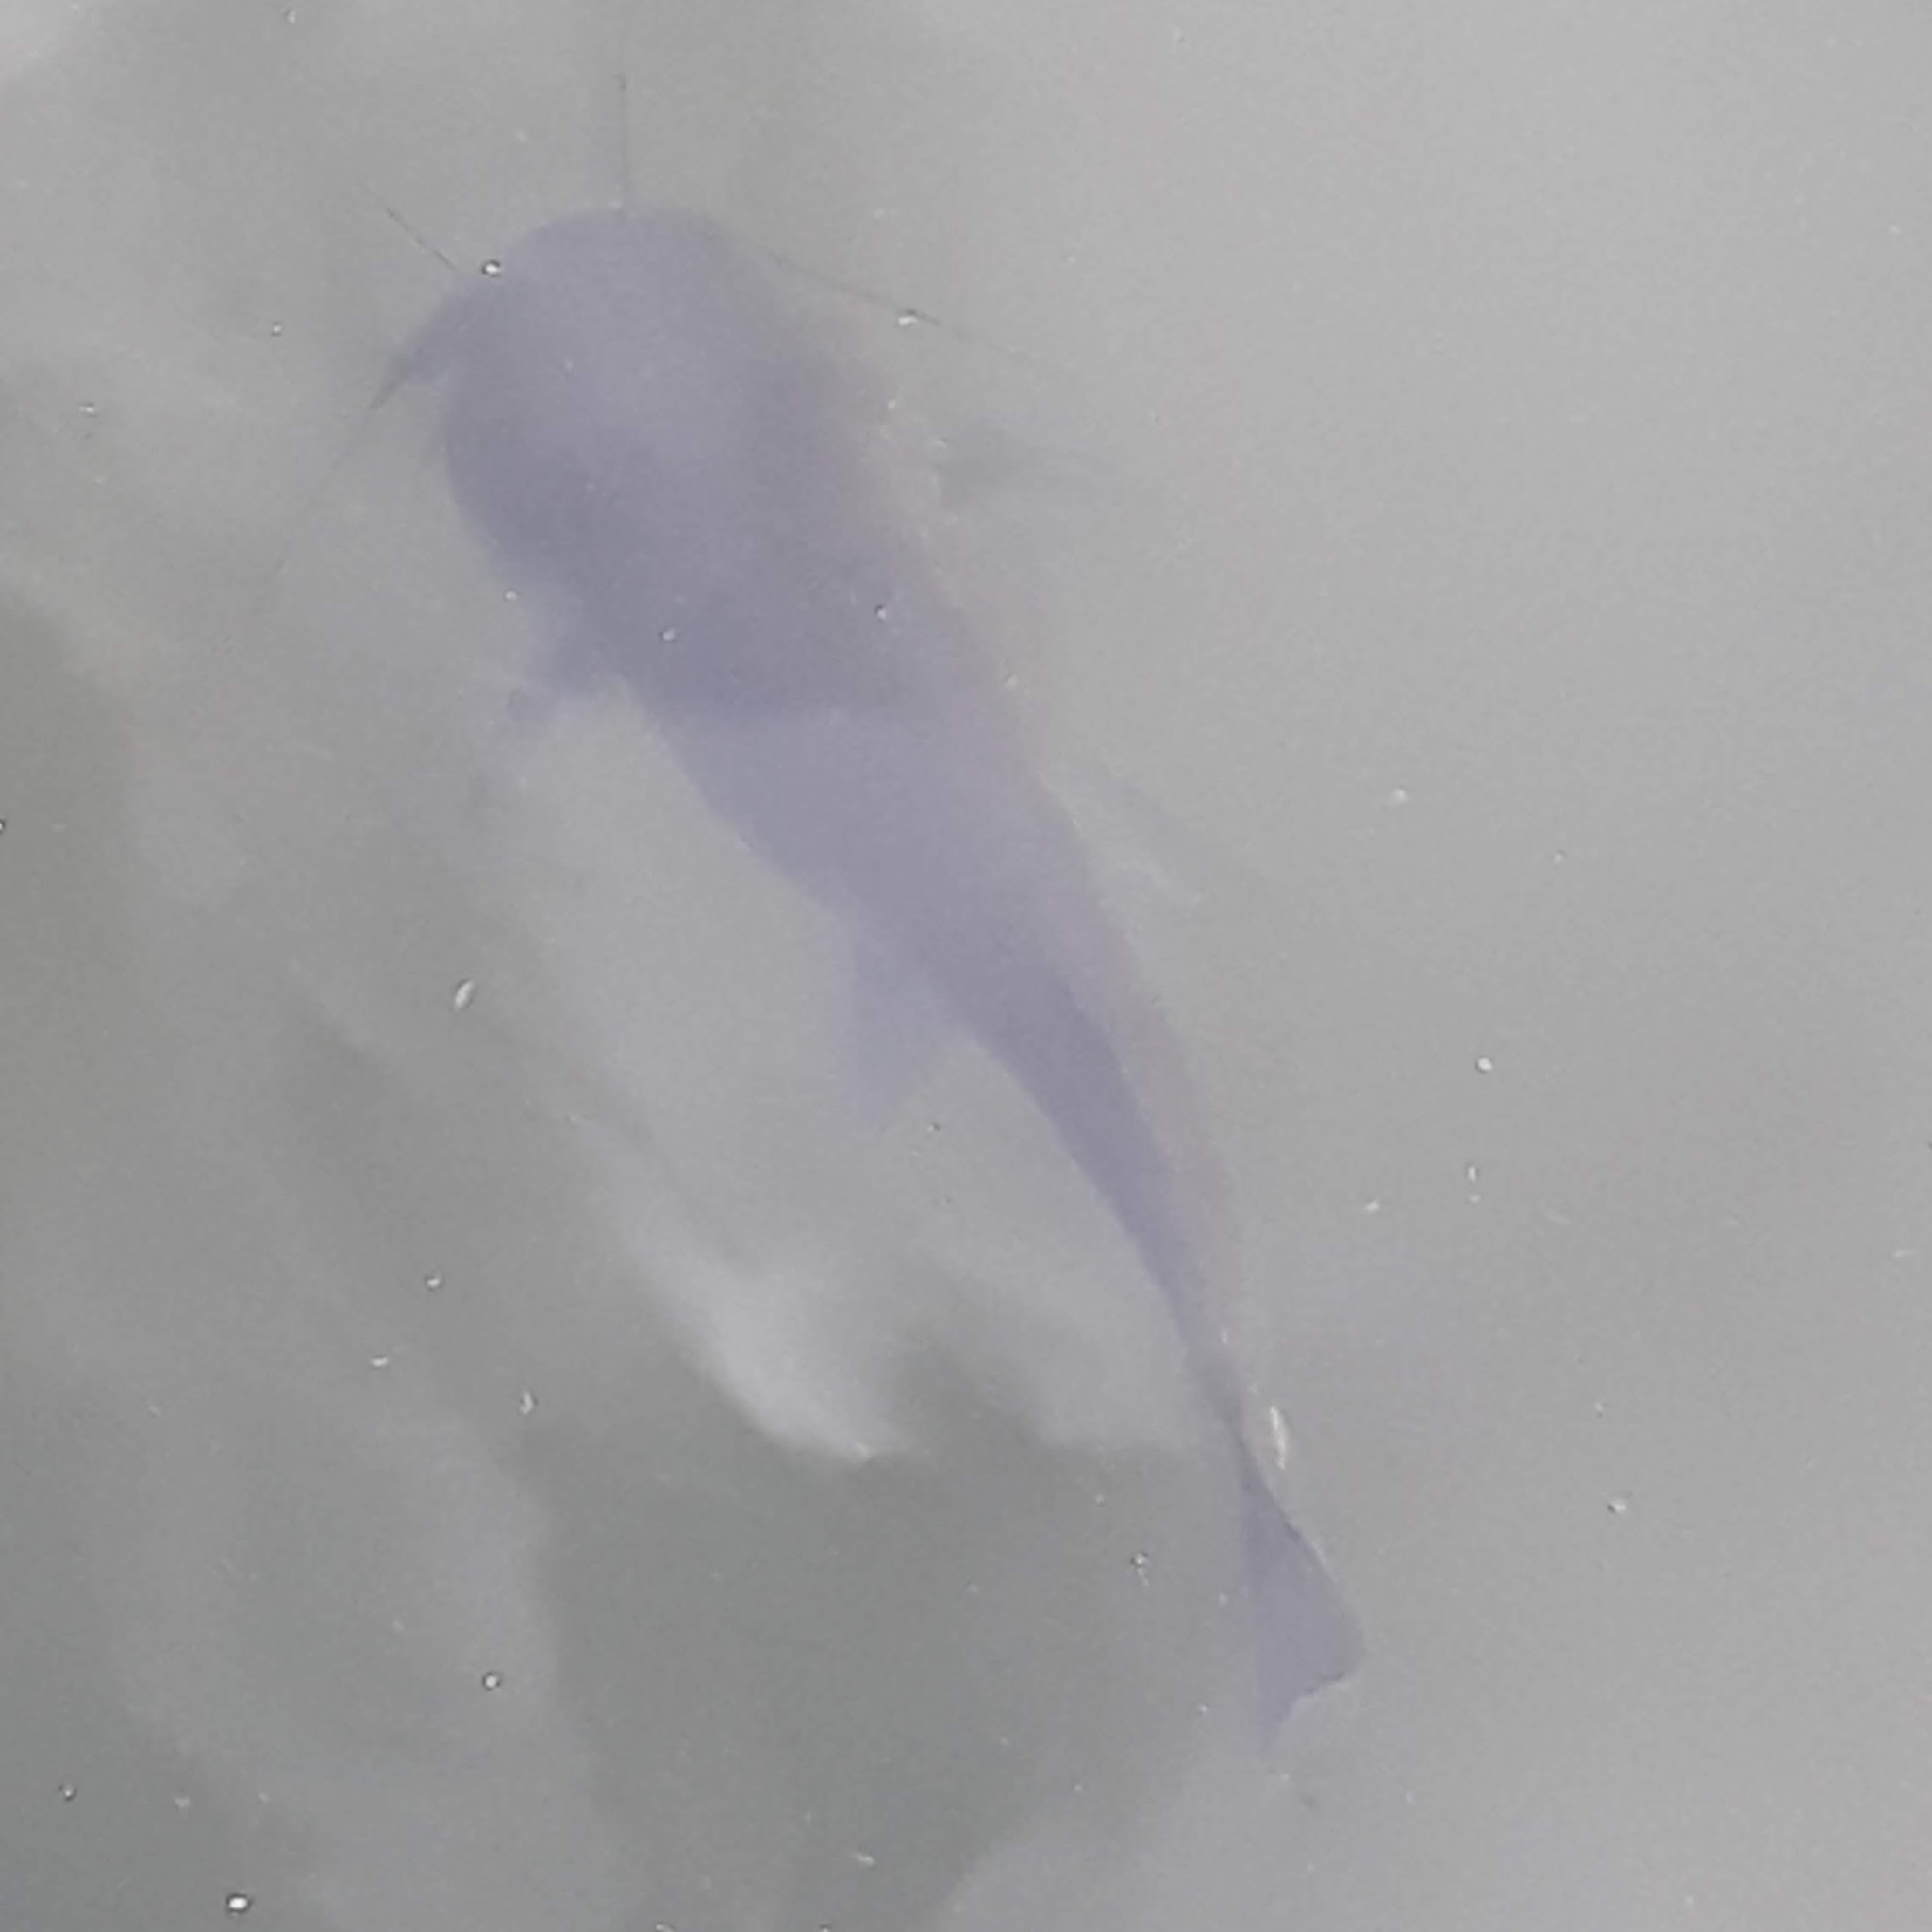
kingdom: Animalia
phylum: Chordata
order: Siluriformes
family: Ictaluridae
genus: Ameiurus
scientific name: Ameiurus
